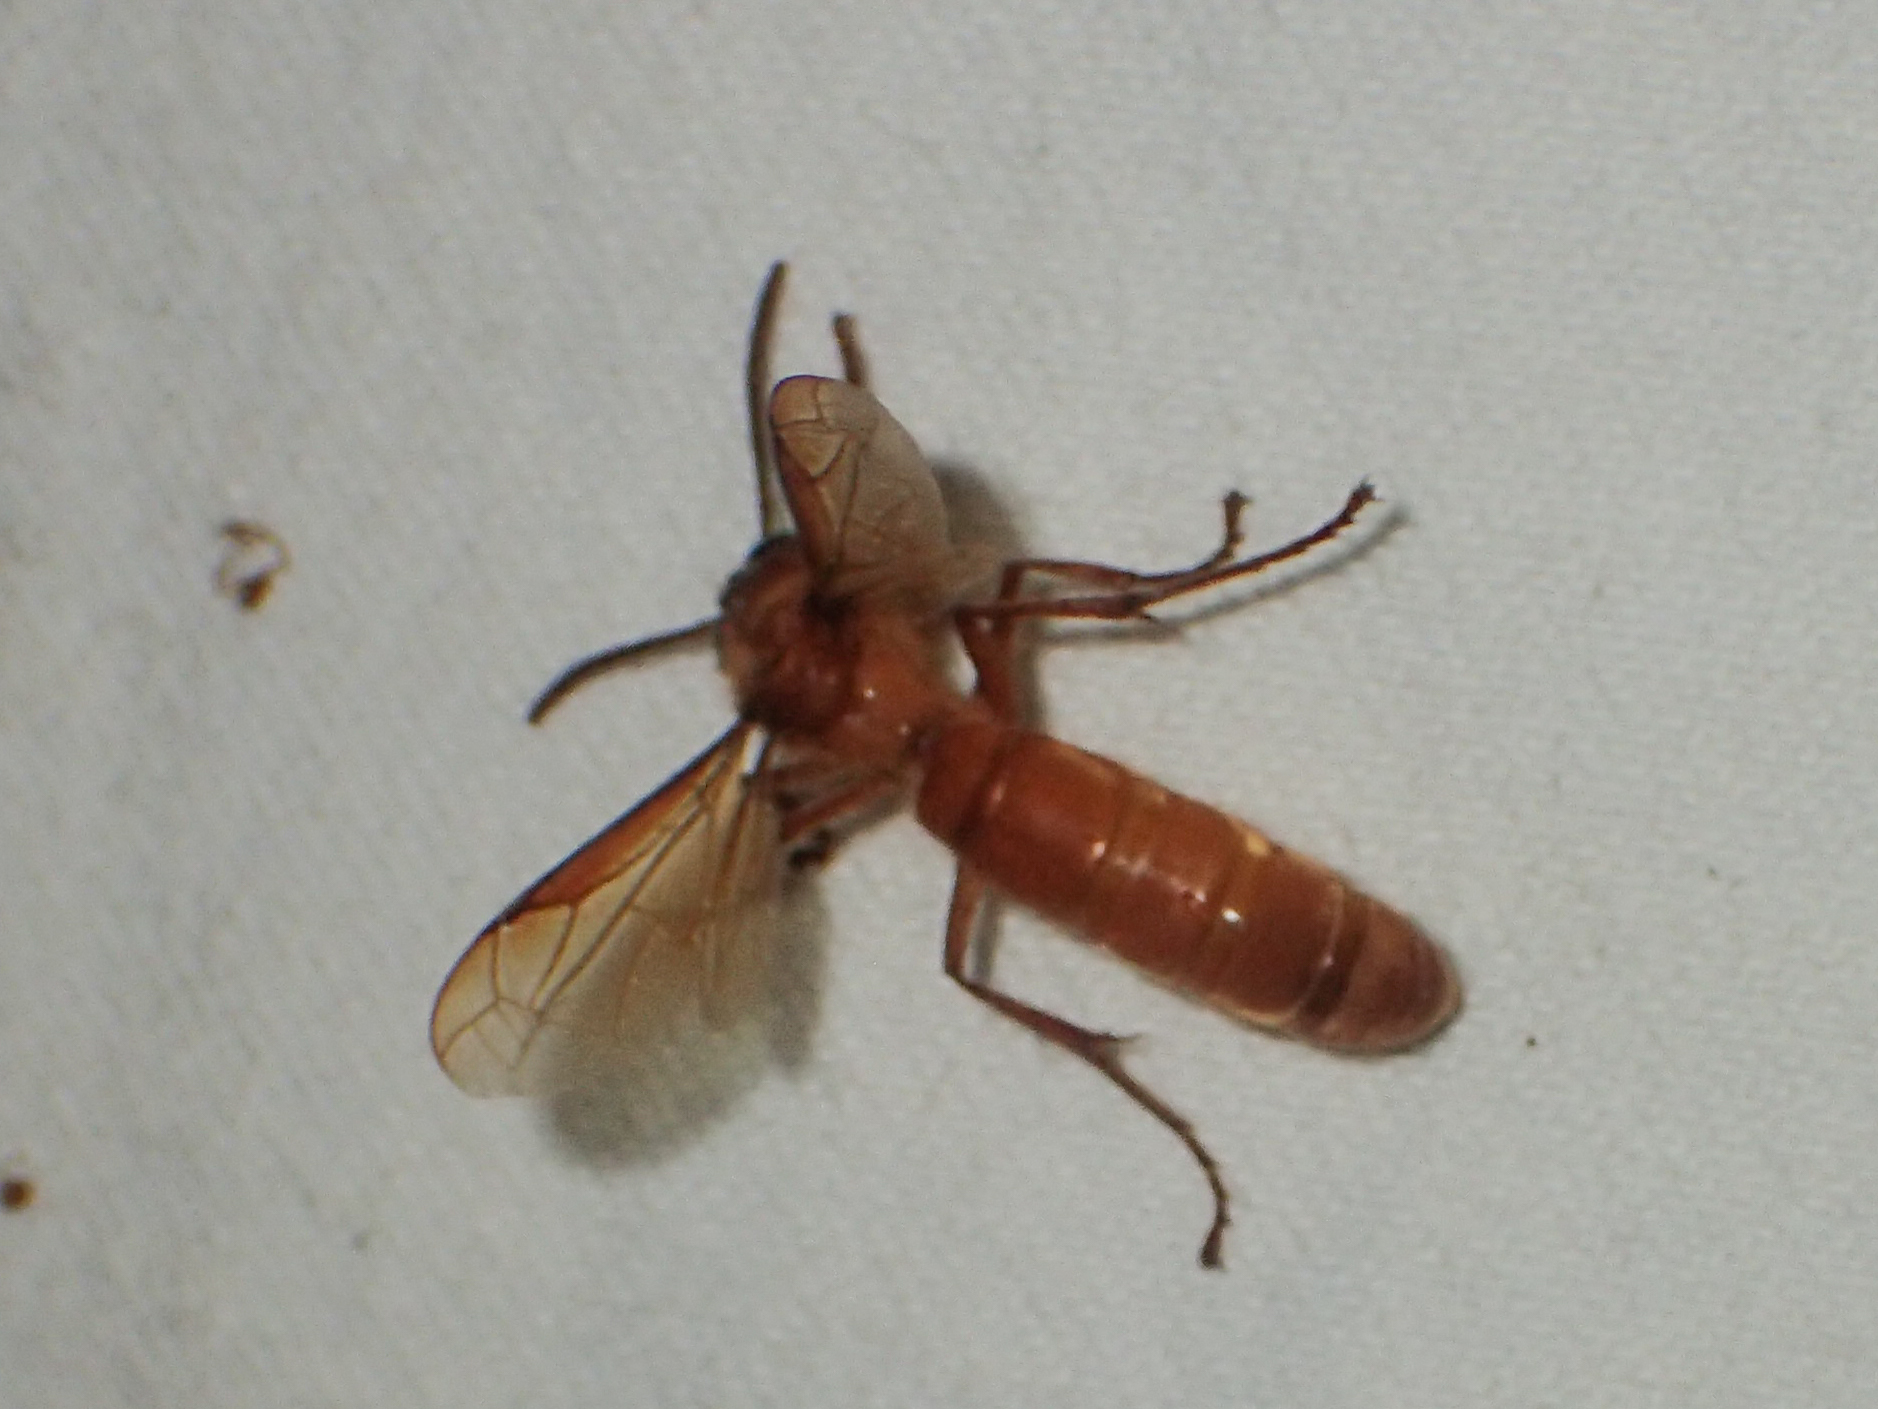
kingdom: Animalia
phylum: Arthropoda
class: Insecta
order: Hymenoptera
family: Vespidae
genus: Provespa
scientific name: Provespa barthelemyi
